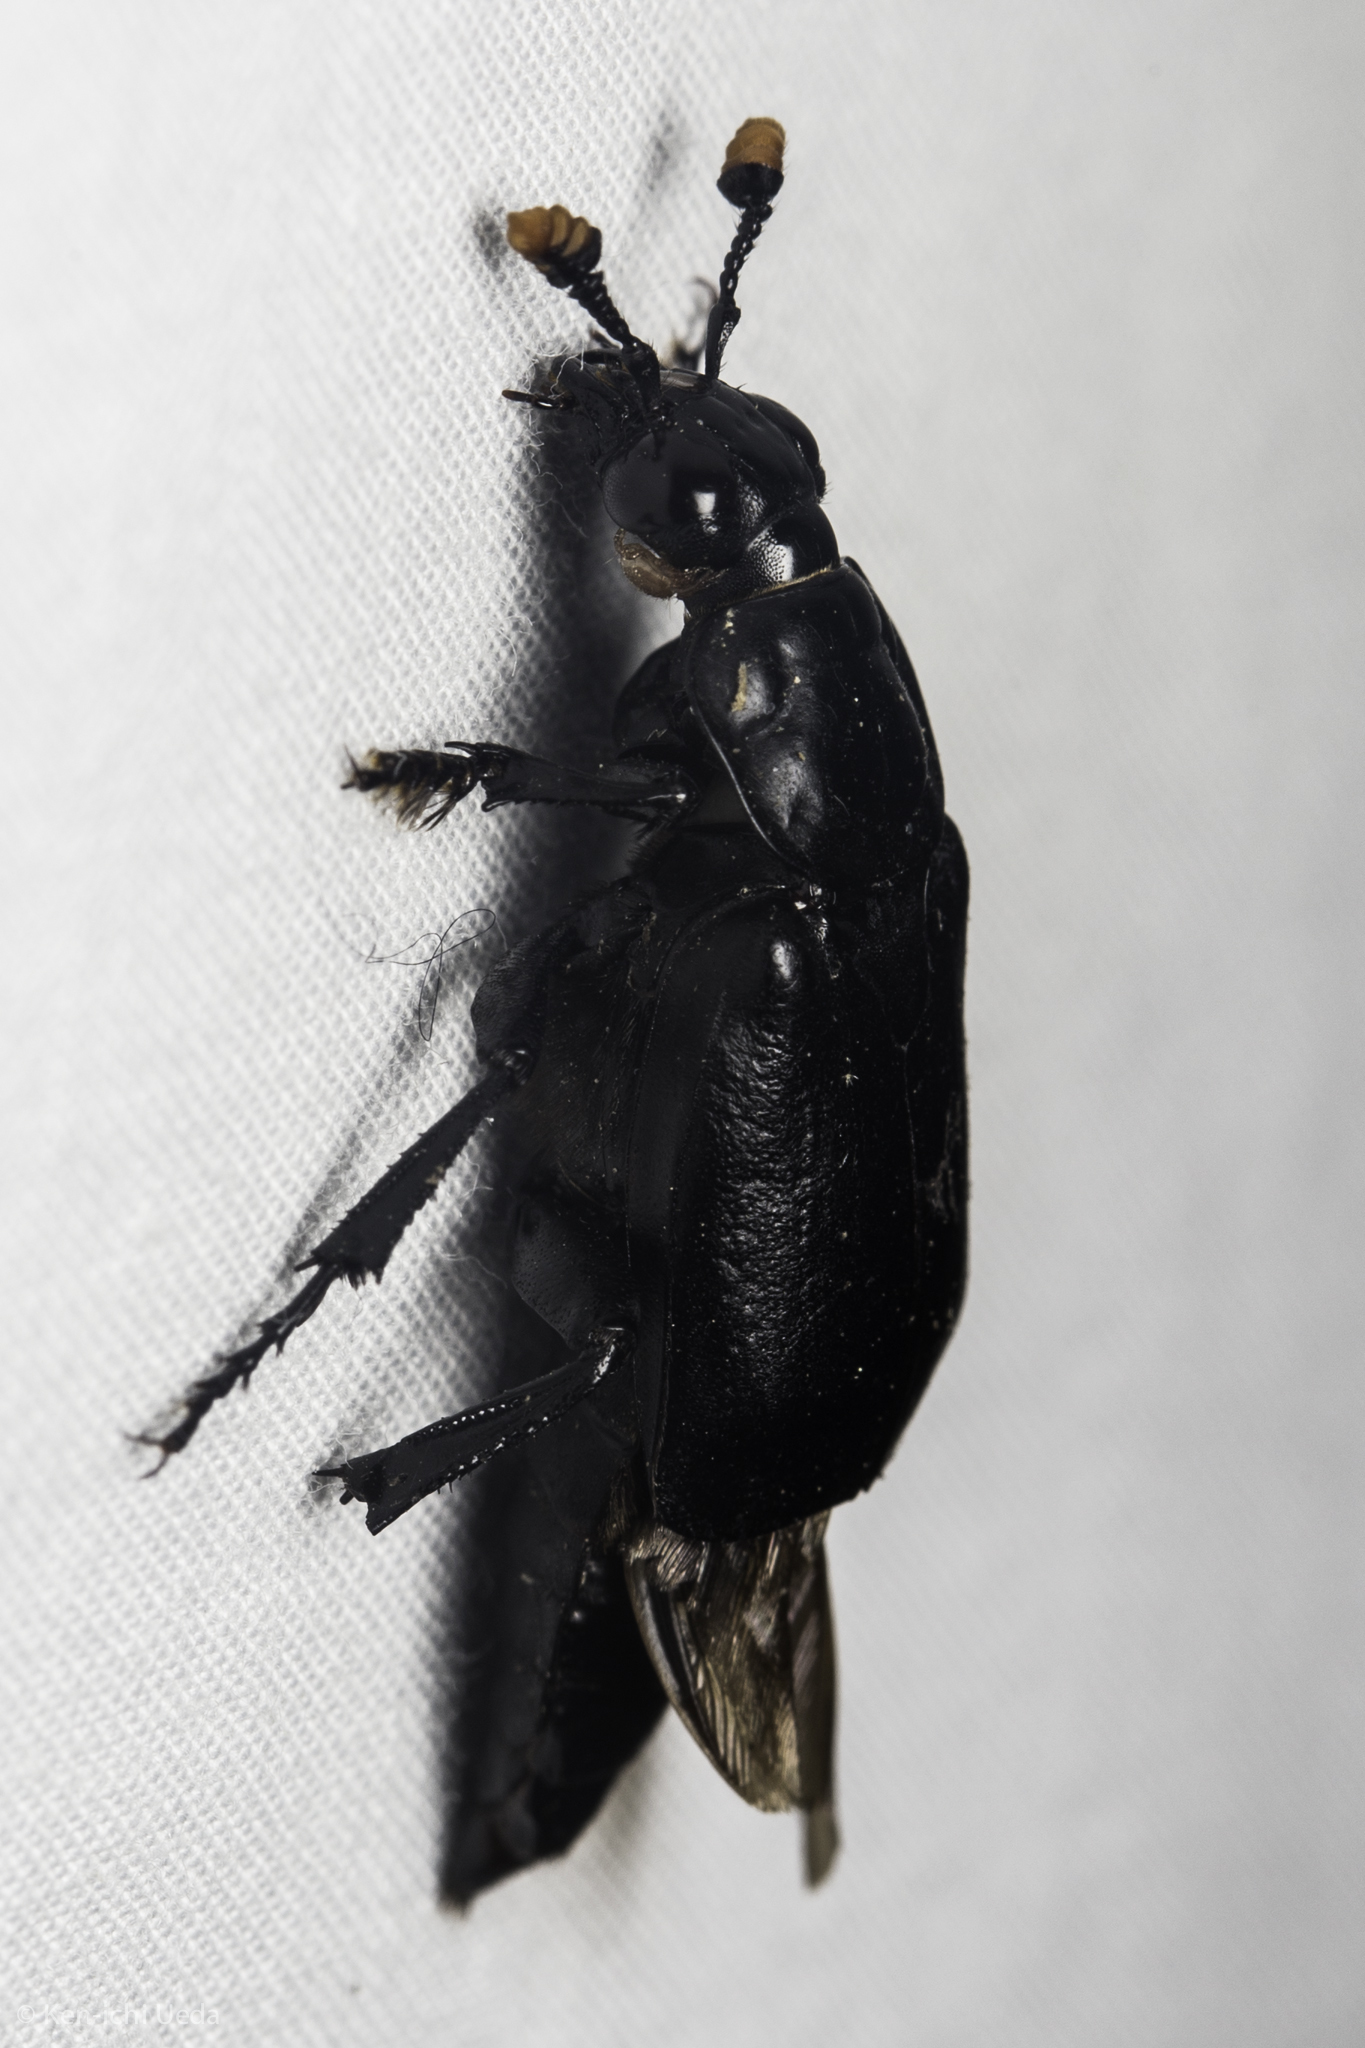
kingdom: Animalia
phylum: Arthropoda
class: Insecta
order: Coleoptera
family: Staphylinidae
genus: Nicrophorus
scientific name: Nicrophorus nigrita
